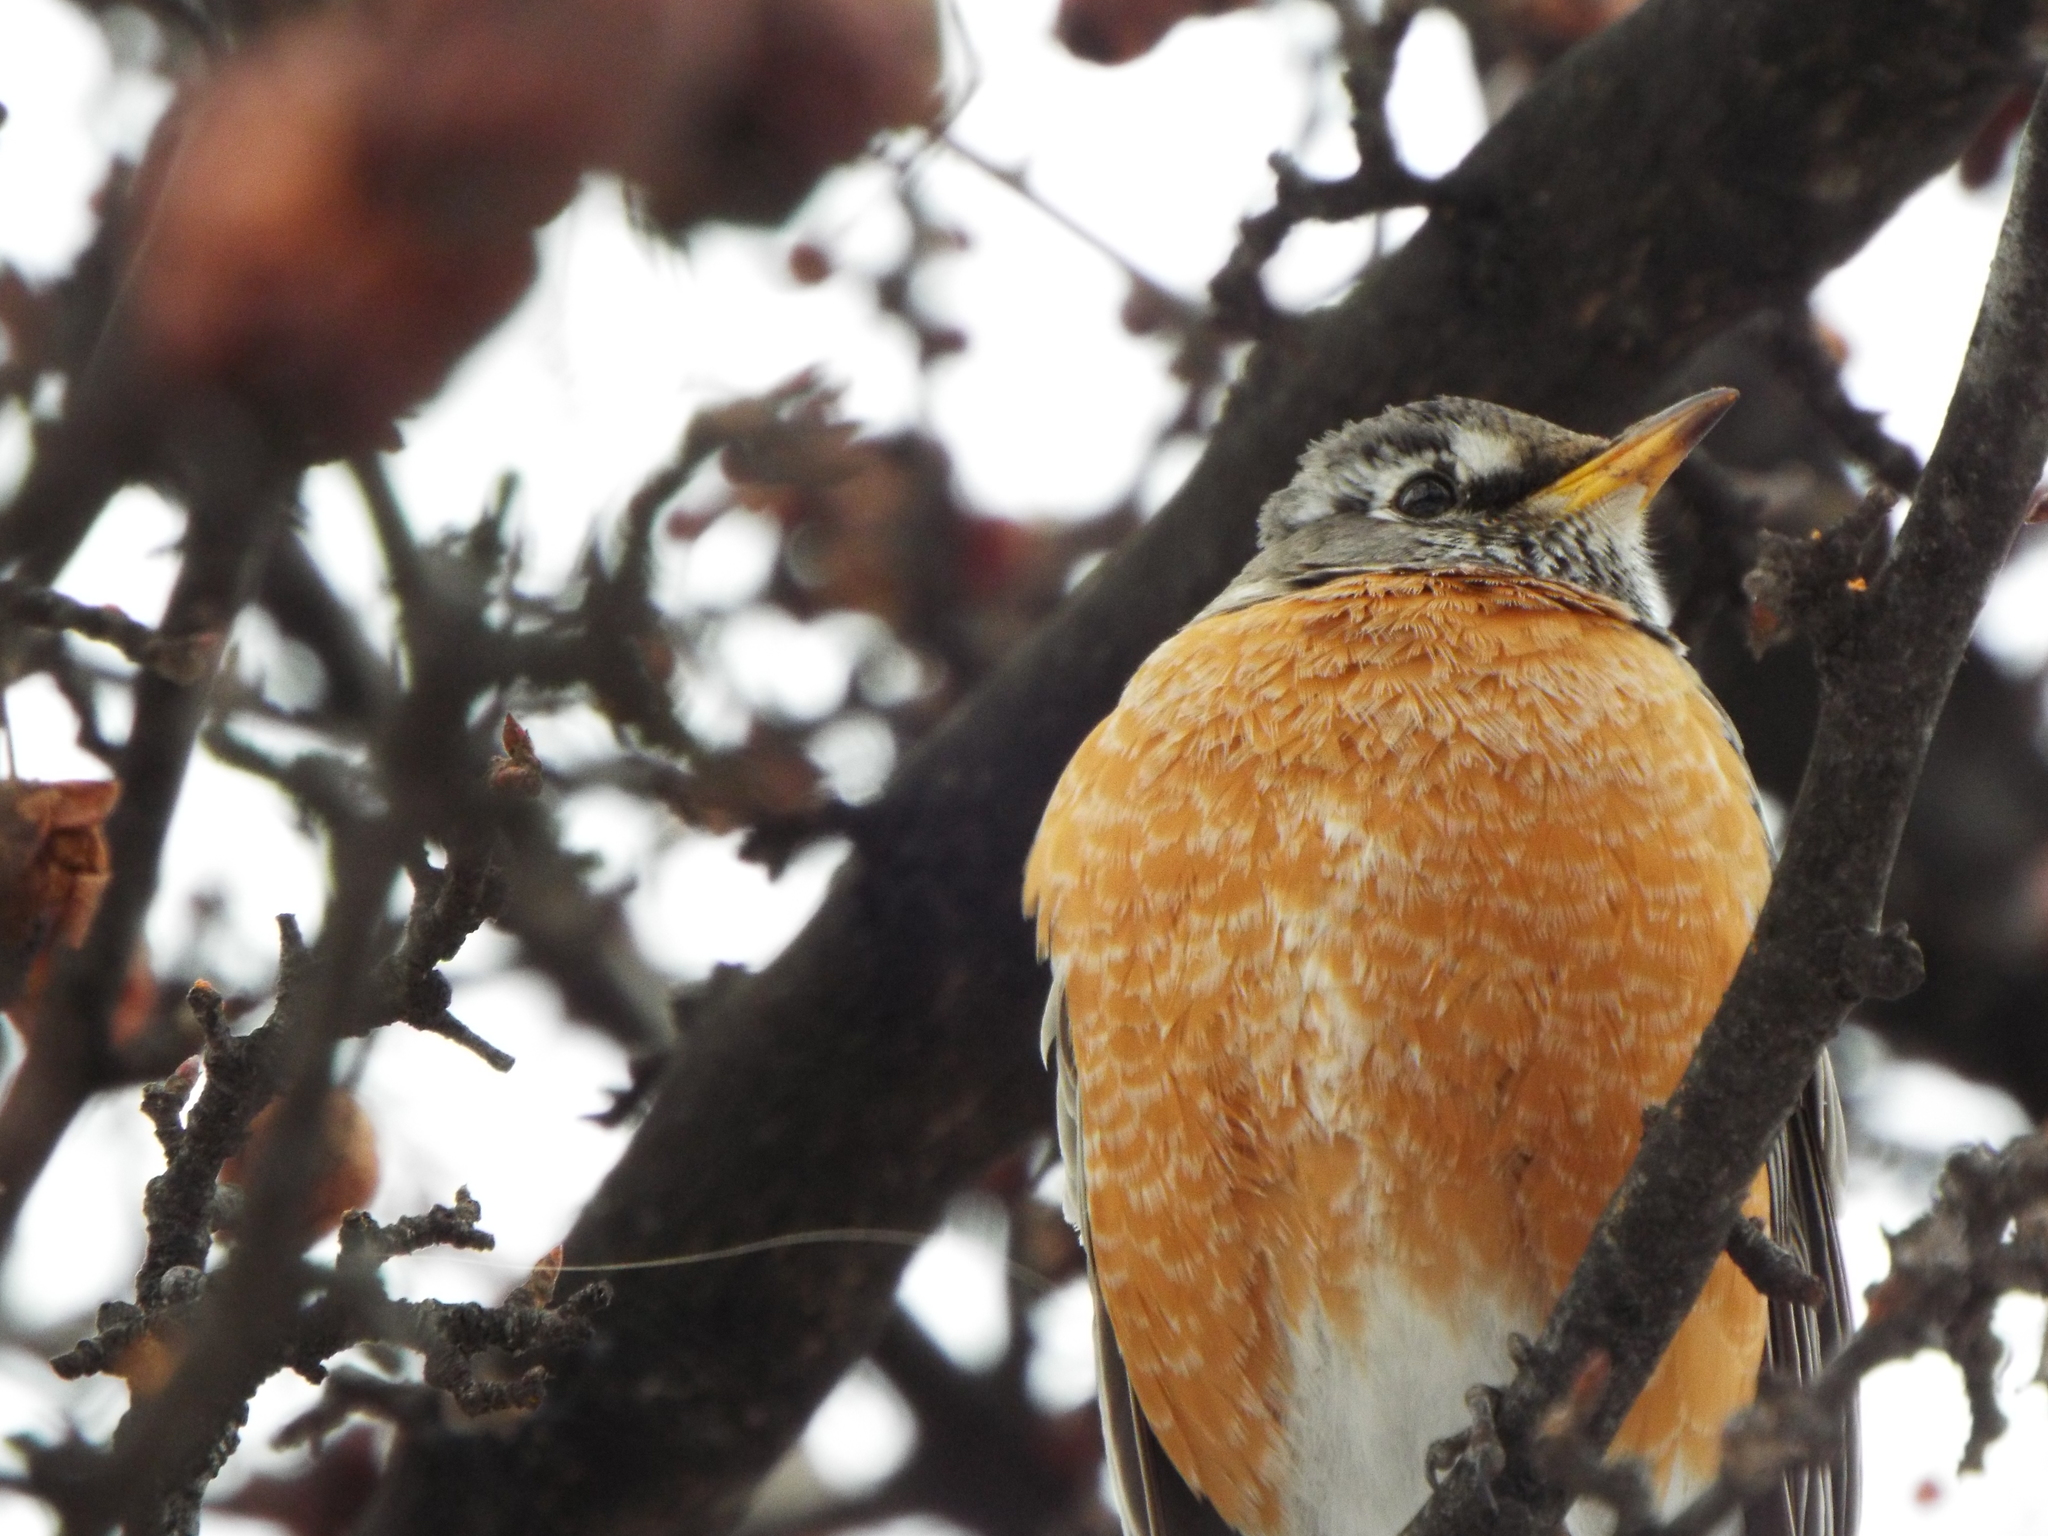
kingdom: Animalia
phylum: Chordata
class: Aves
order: Passeriformes
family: Turdidae
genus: Turdus
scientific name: Turdus migratorius
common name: American robin
